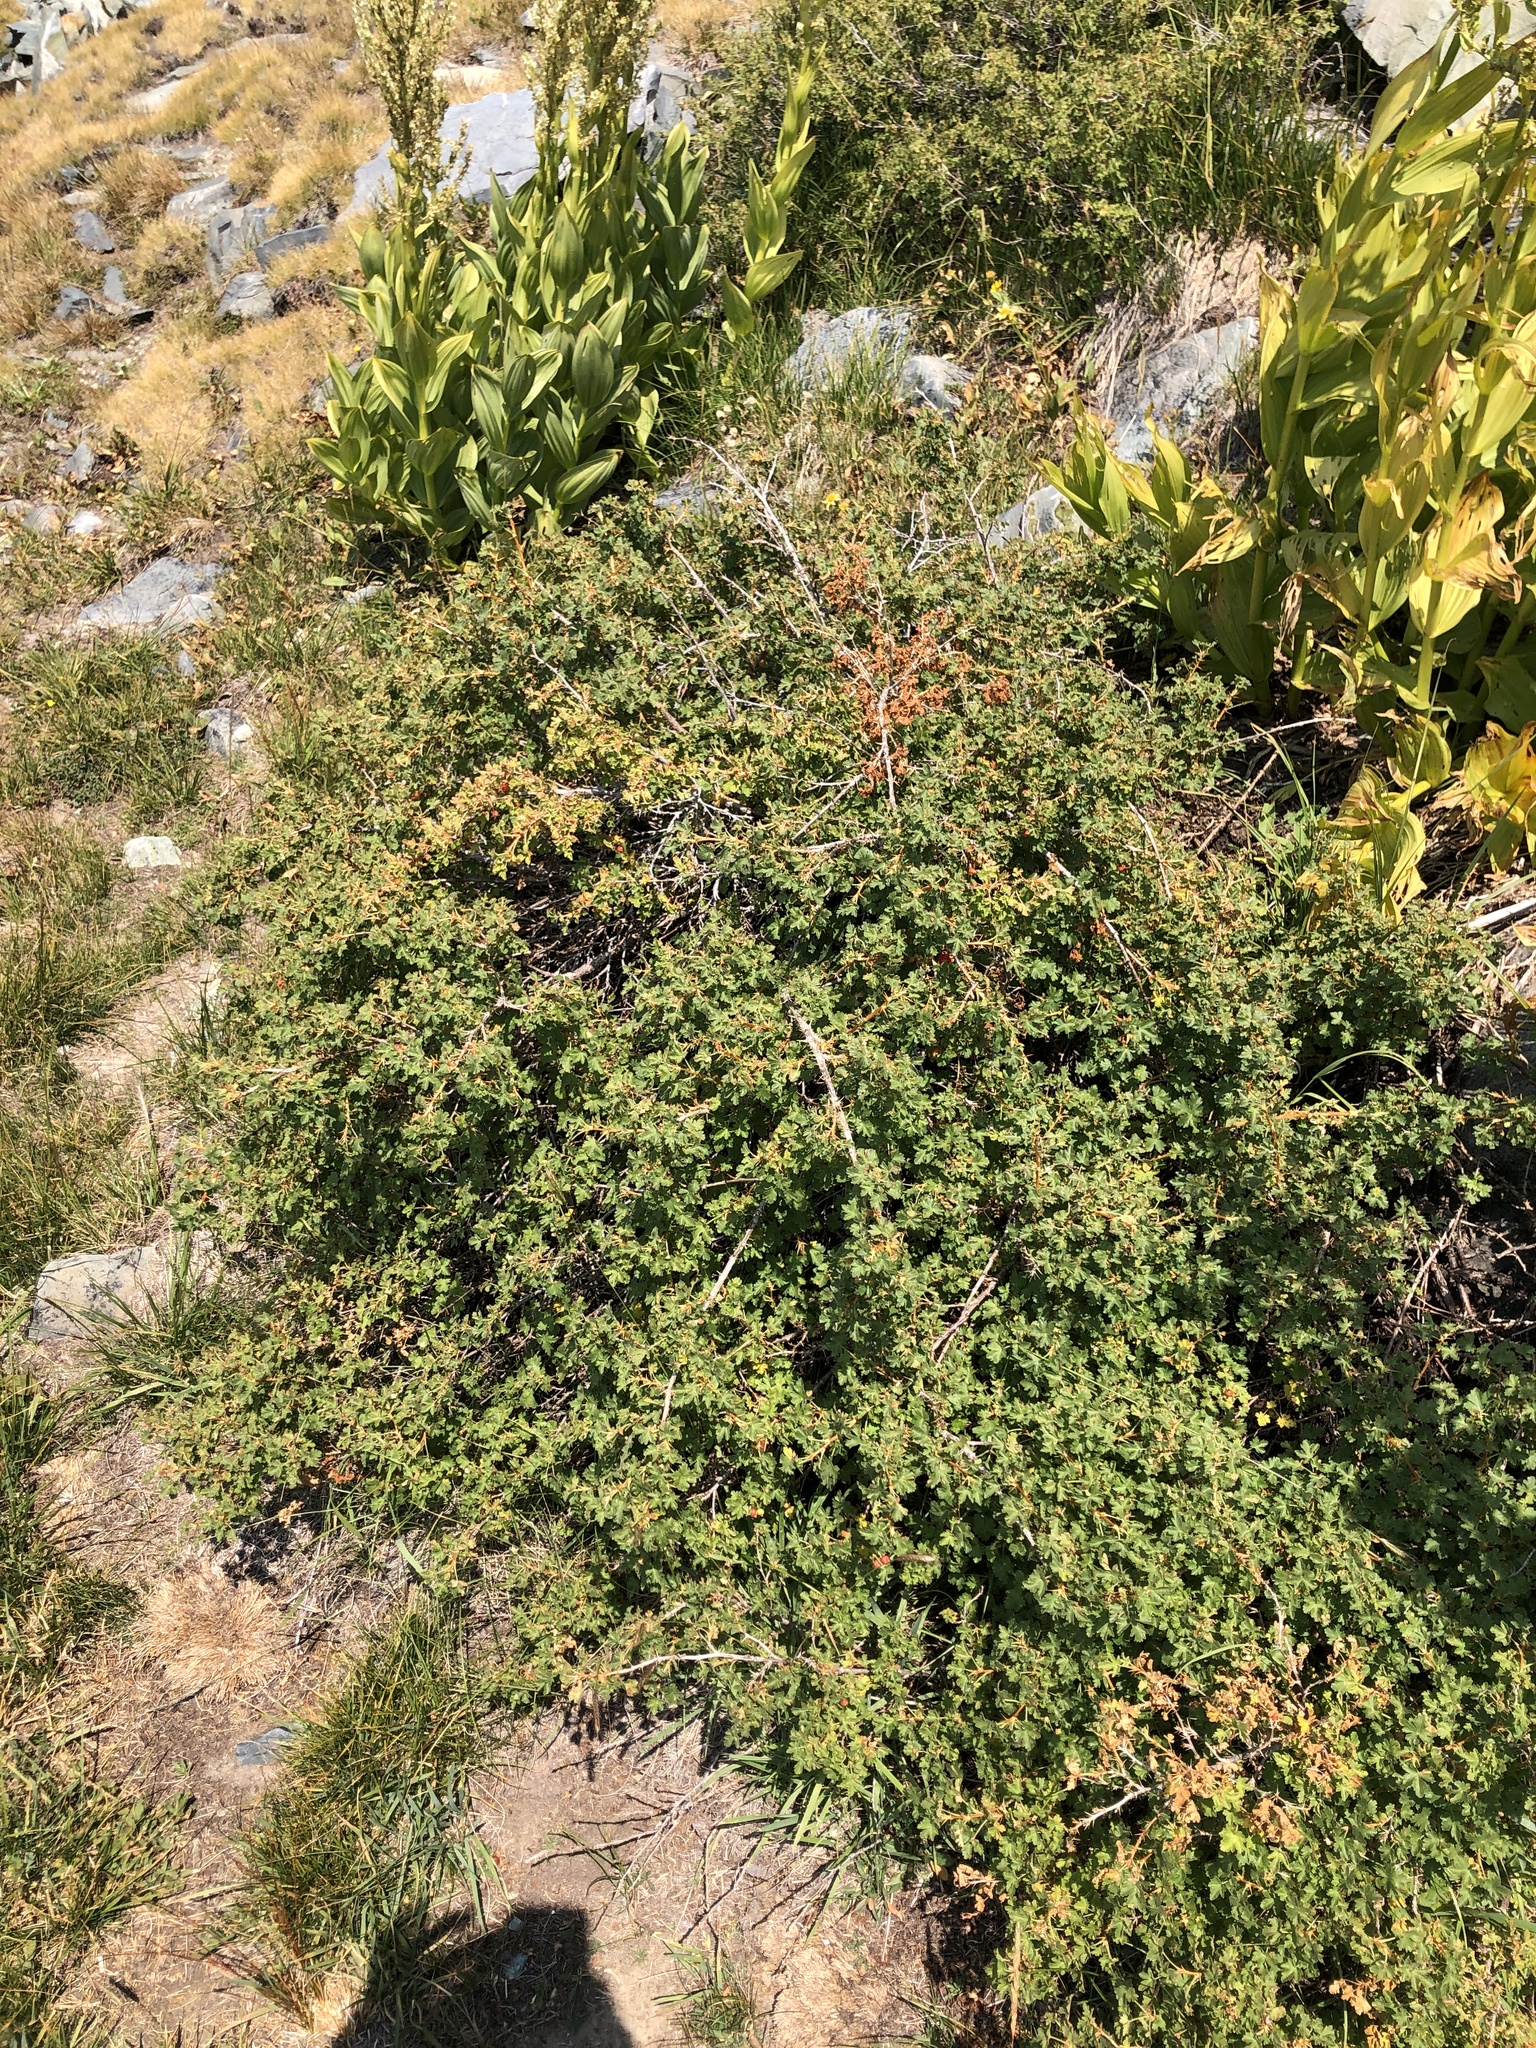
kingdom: Plantae
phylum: Tracheophyta
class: Magnoliopsida
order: Saxifragales
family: Grossulariaceae
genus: Ribes
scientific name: Ribes montigenum
